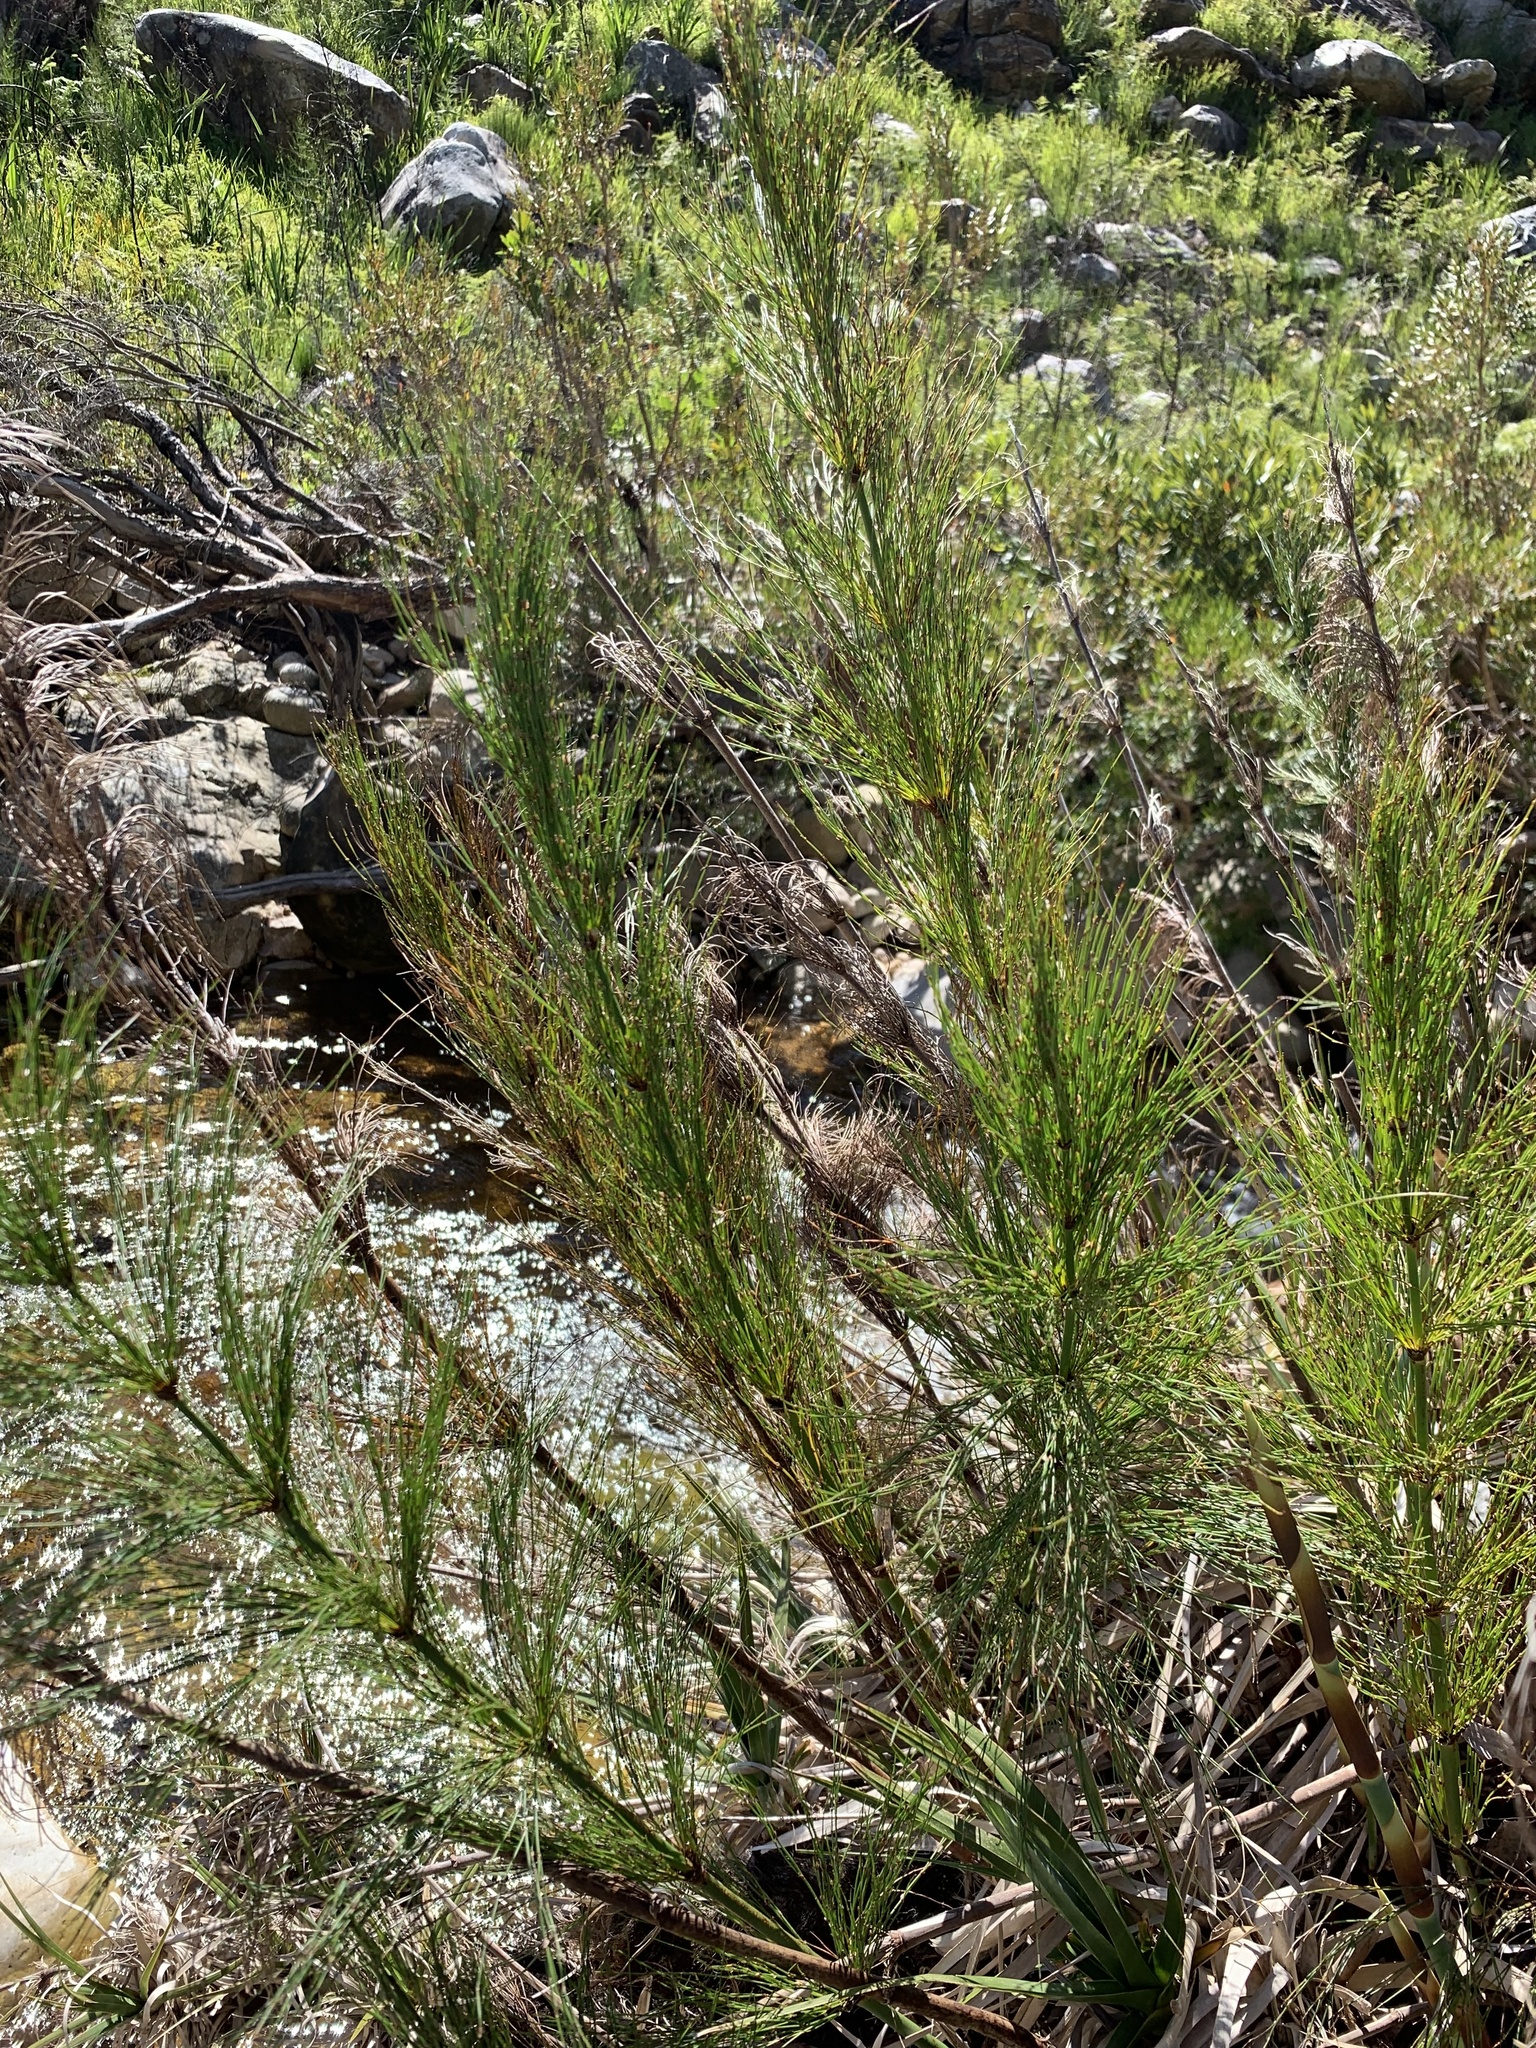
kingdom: Plantae
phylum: Tracheophyta
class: Liliopsida
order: Poales
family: Restionaceae
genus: Elegia
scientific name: Elegia capensis
